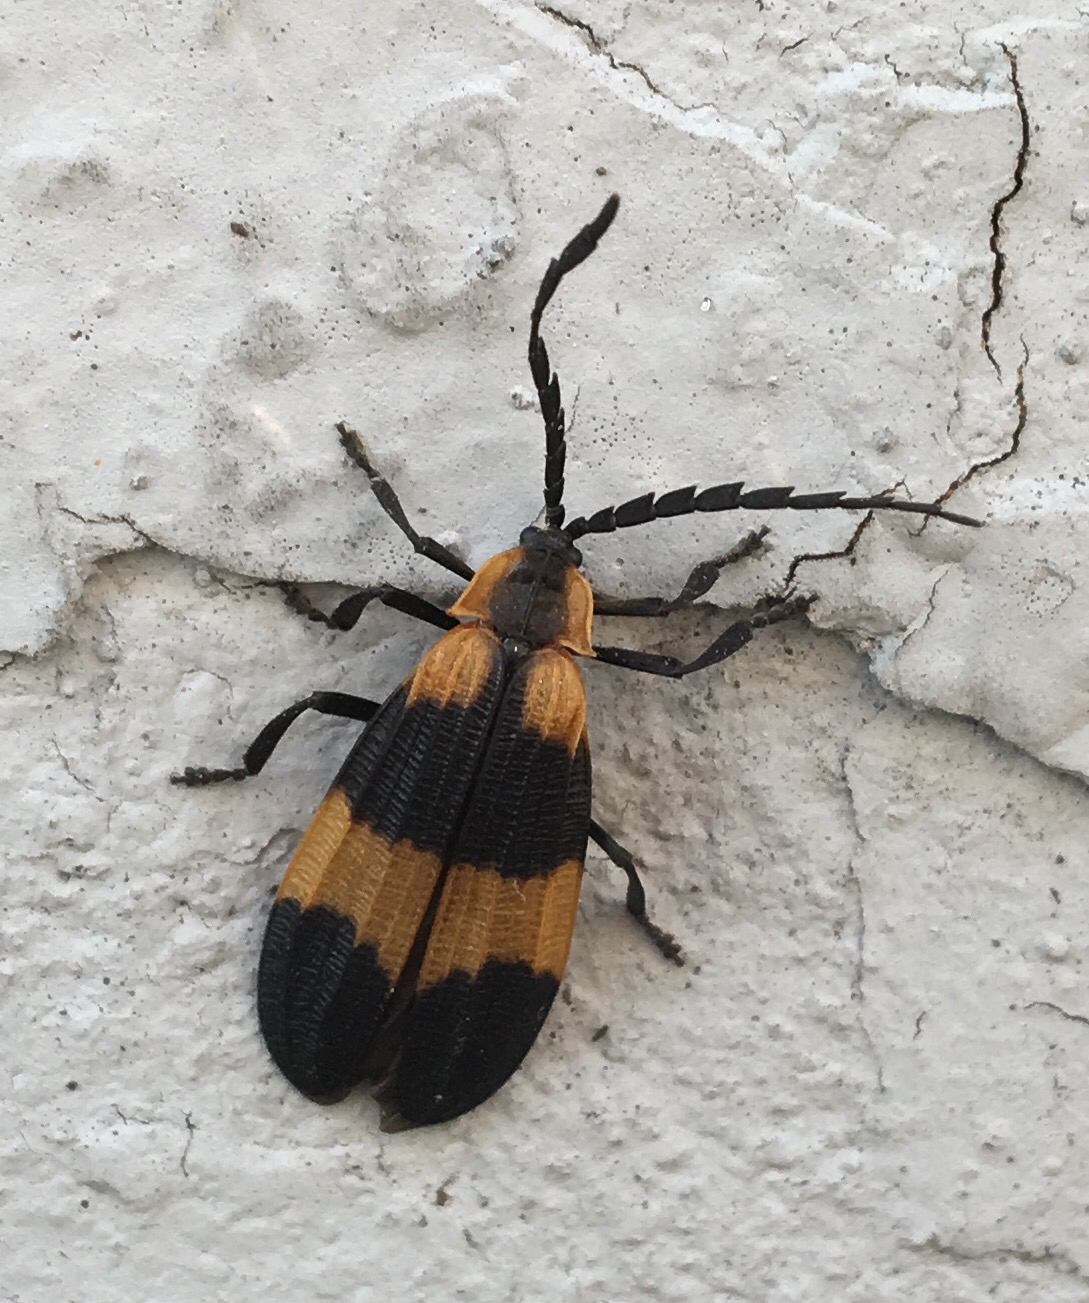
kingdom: Animalia
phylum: Arthropoda
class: Insecta
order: Coleoptera
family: Lycidae
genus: Calopteron
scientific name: Calopteron reticulatum
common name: Banded net-winged beetle
